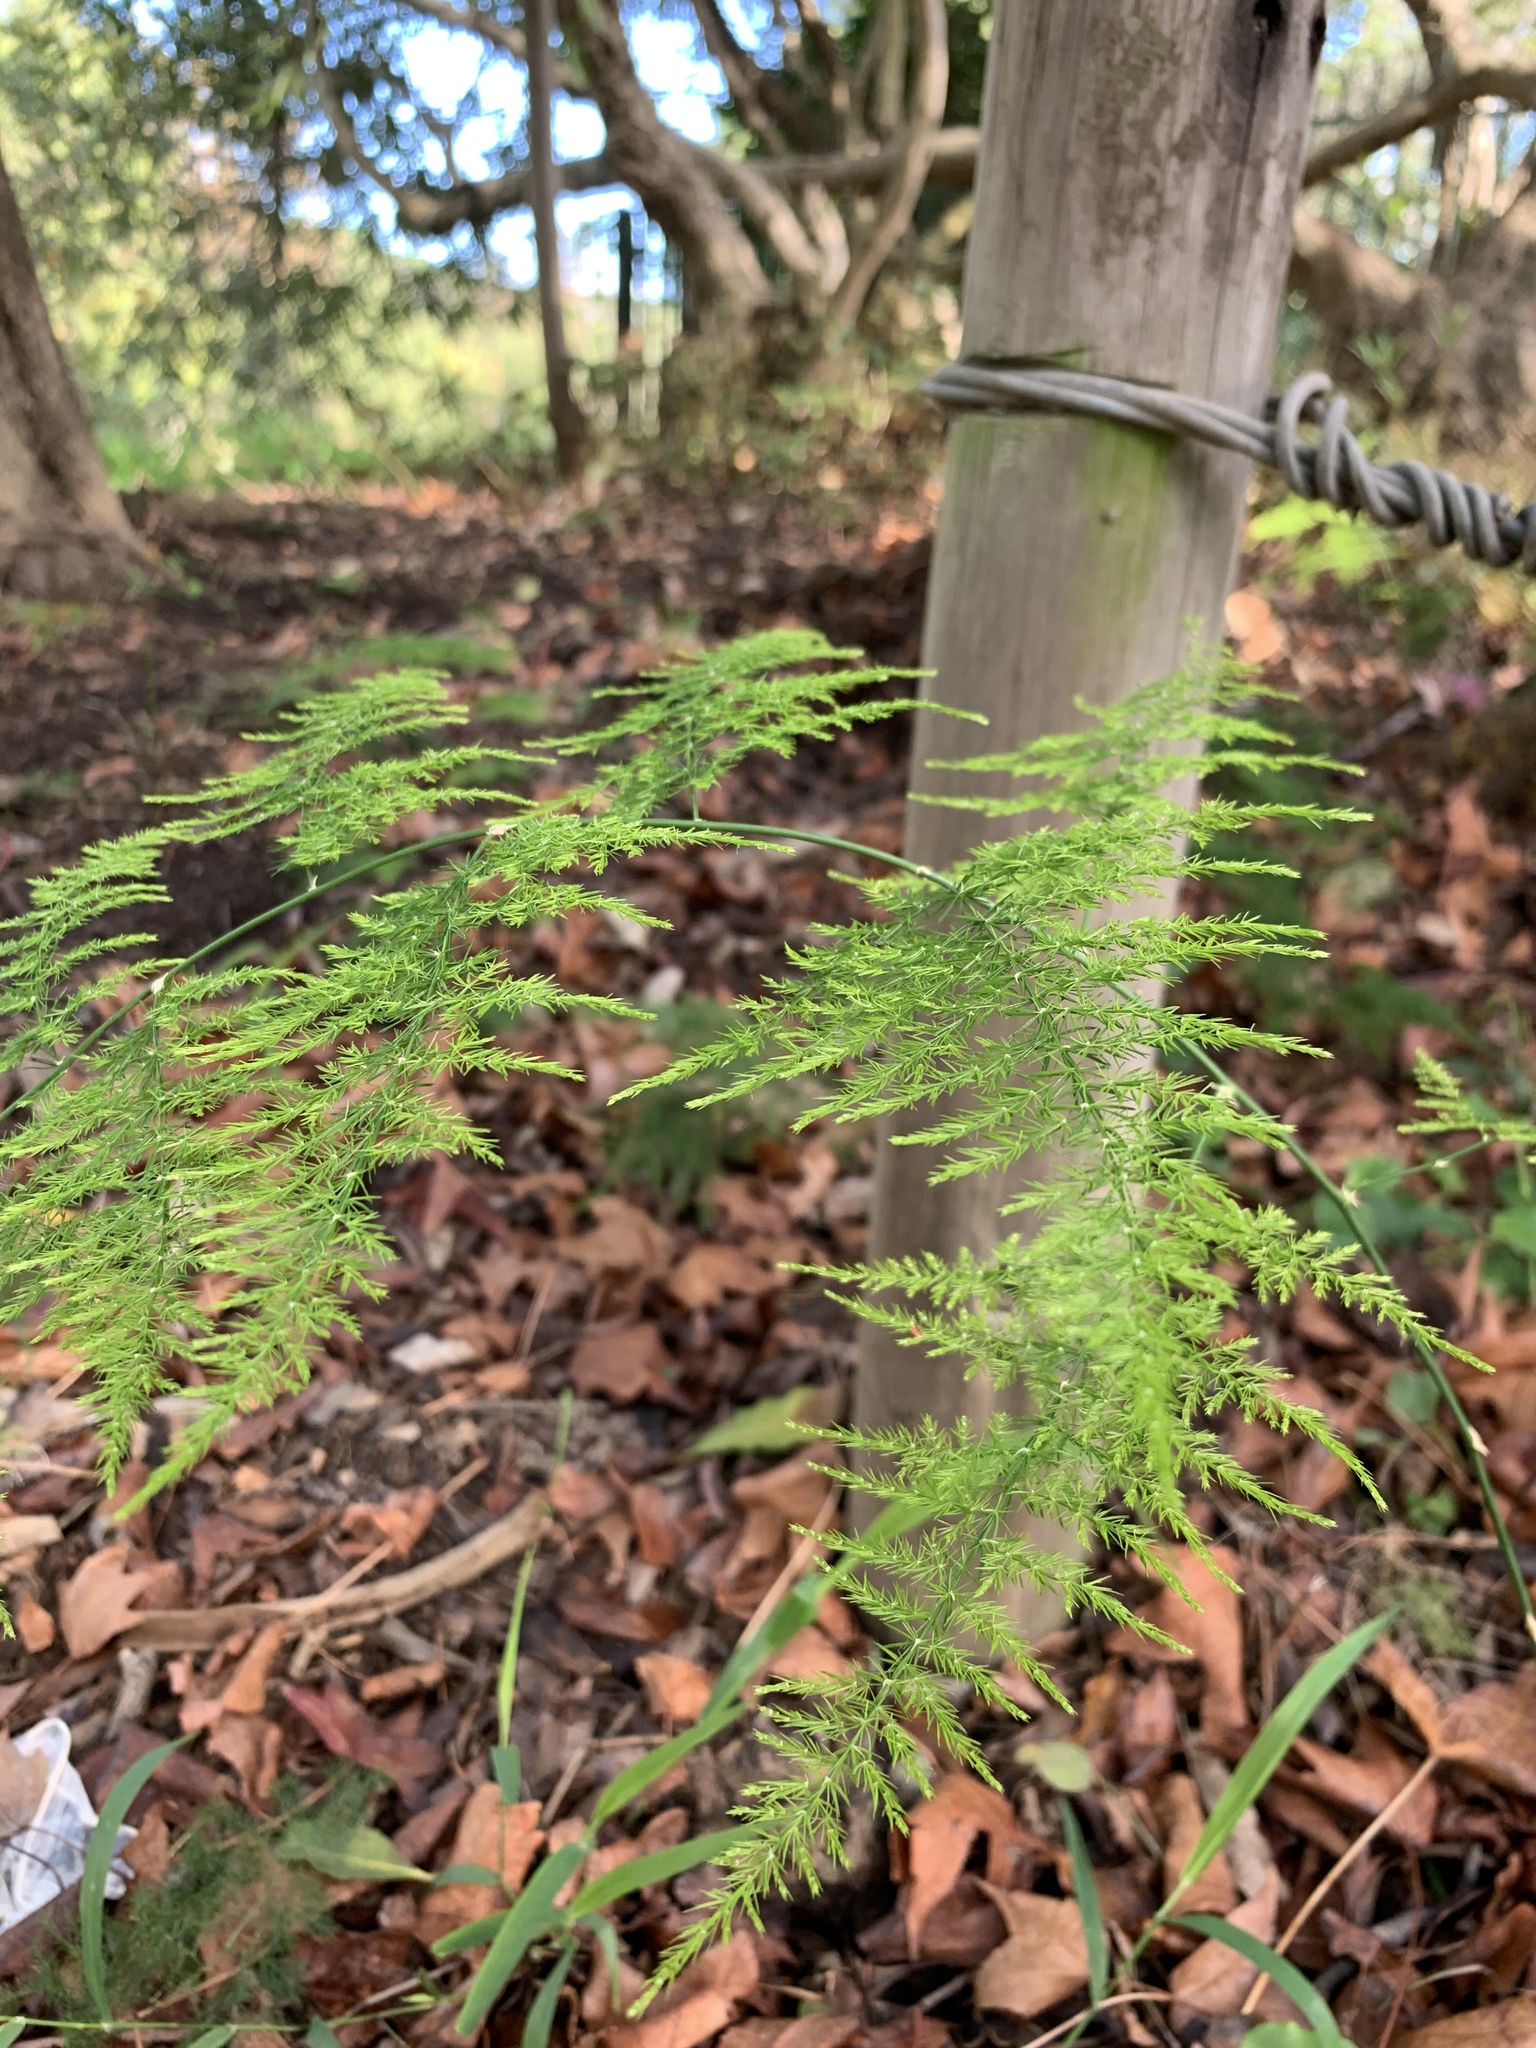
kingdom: Plantae
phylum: Tracheophyta
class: Liliopsida
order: Asparagales
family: Asparagaceae
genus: Asparagus
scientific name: Asparagus setaceus
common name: Common asparagus fern
